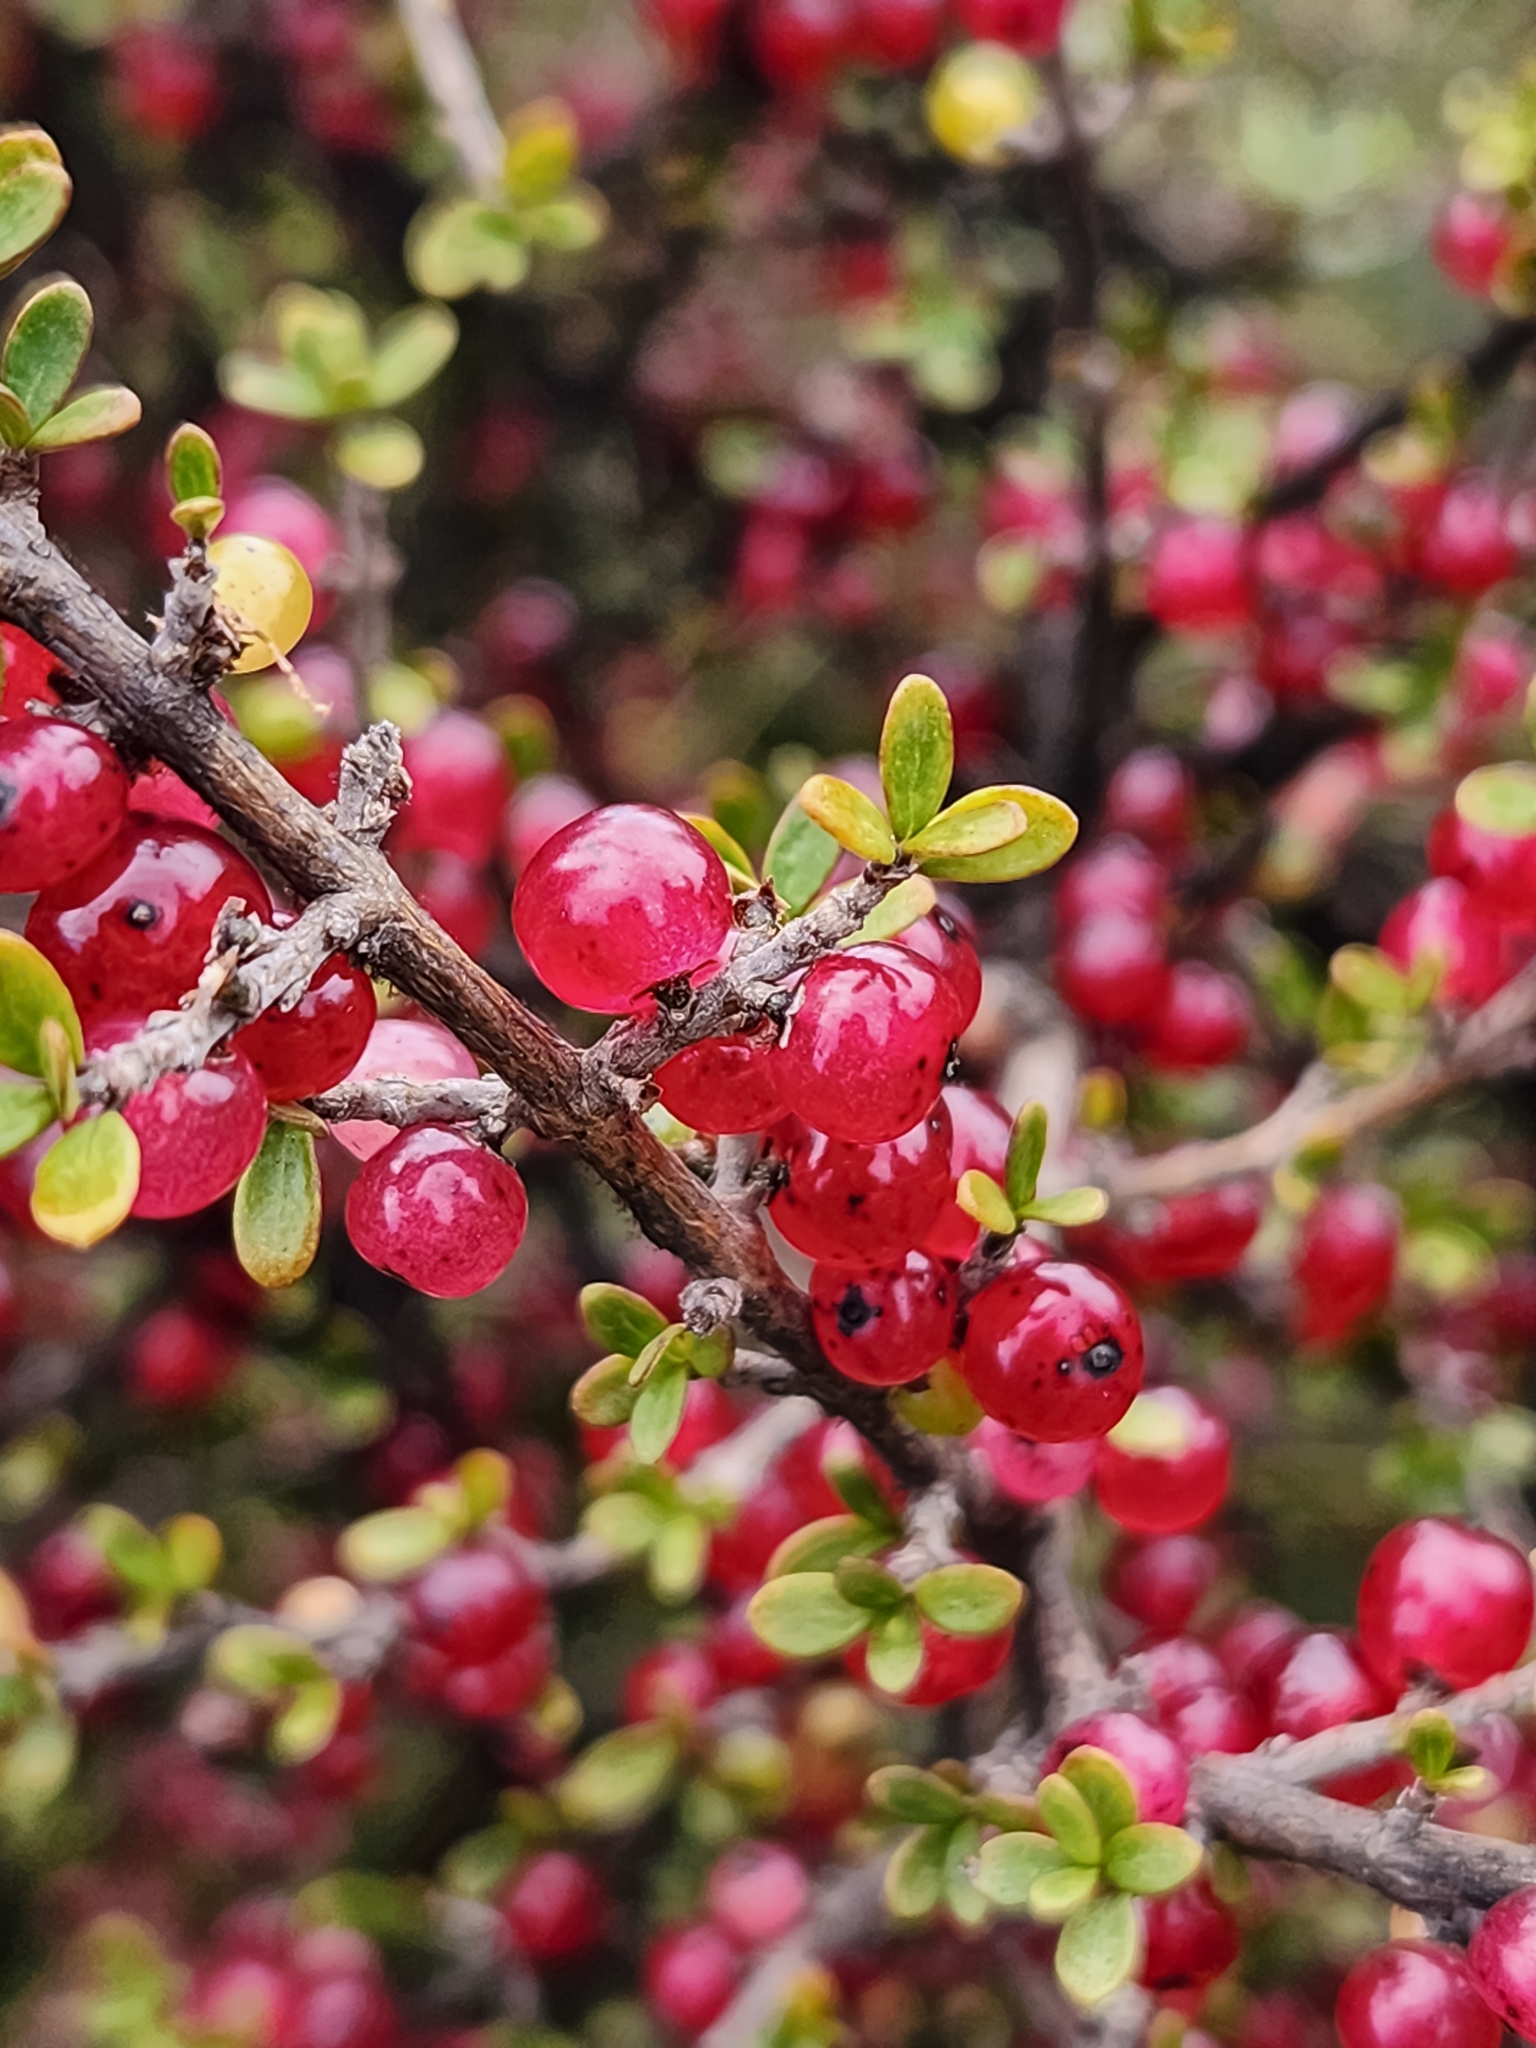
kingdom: Plantae
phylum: Tracheophyta
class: Magnoliopsida
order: Gentianales
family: Rubiaceae
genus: Coprosma
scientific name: Coprosma dumosa
